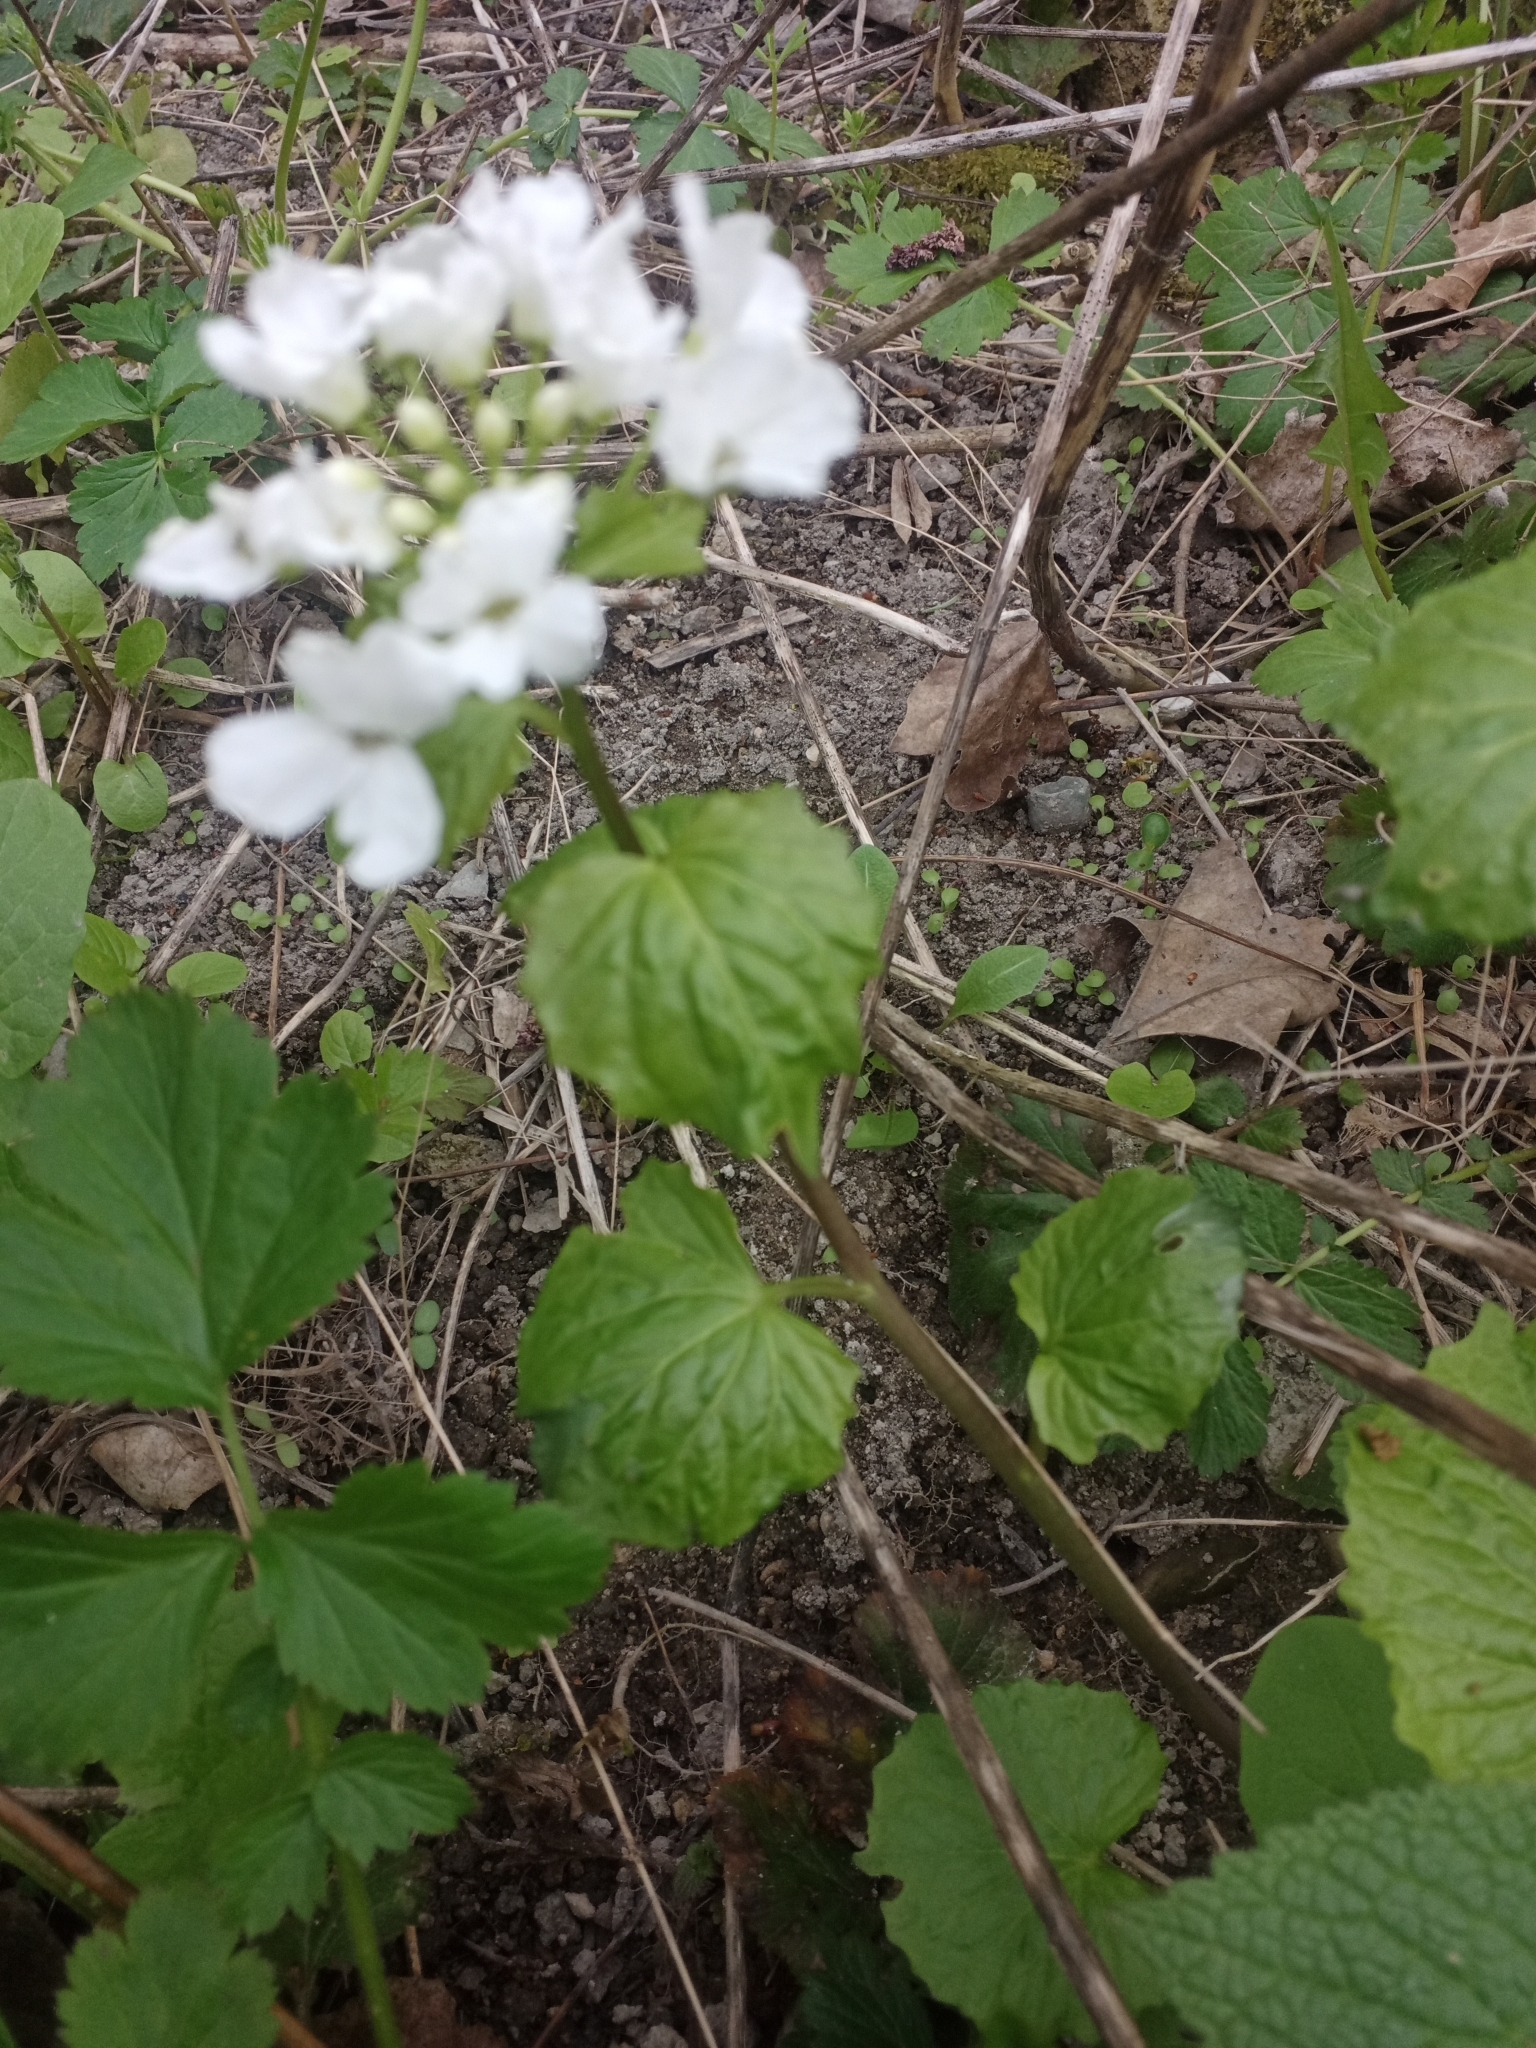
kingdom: Plantae
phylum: Tracheophyta
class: Magnoliopsida
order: Brassicales
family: Brassicaceae
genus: Pachyphragma
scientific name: Pachyphragma macrophyllum
